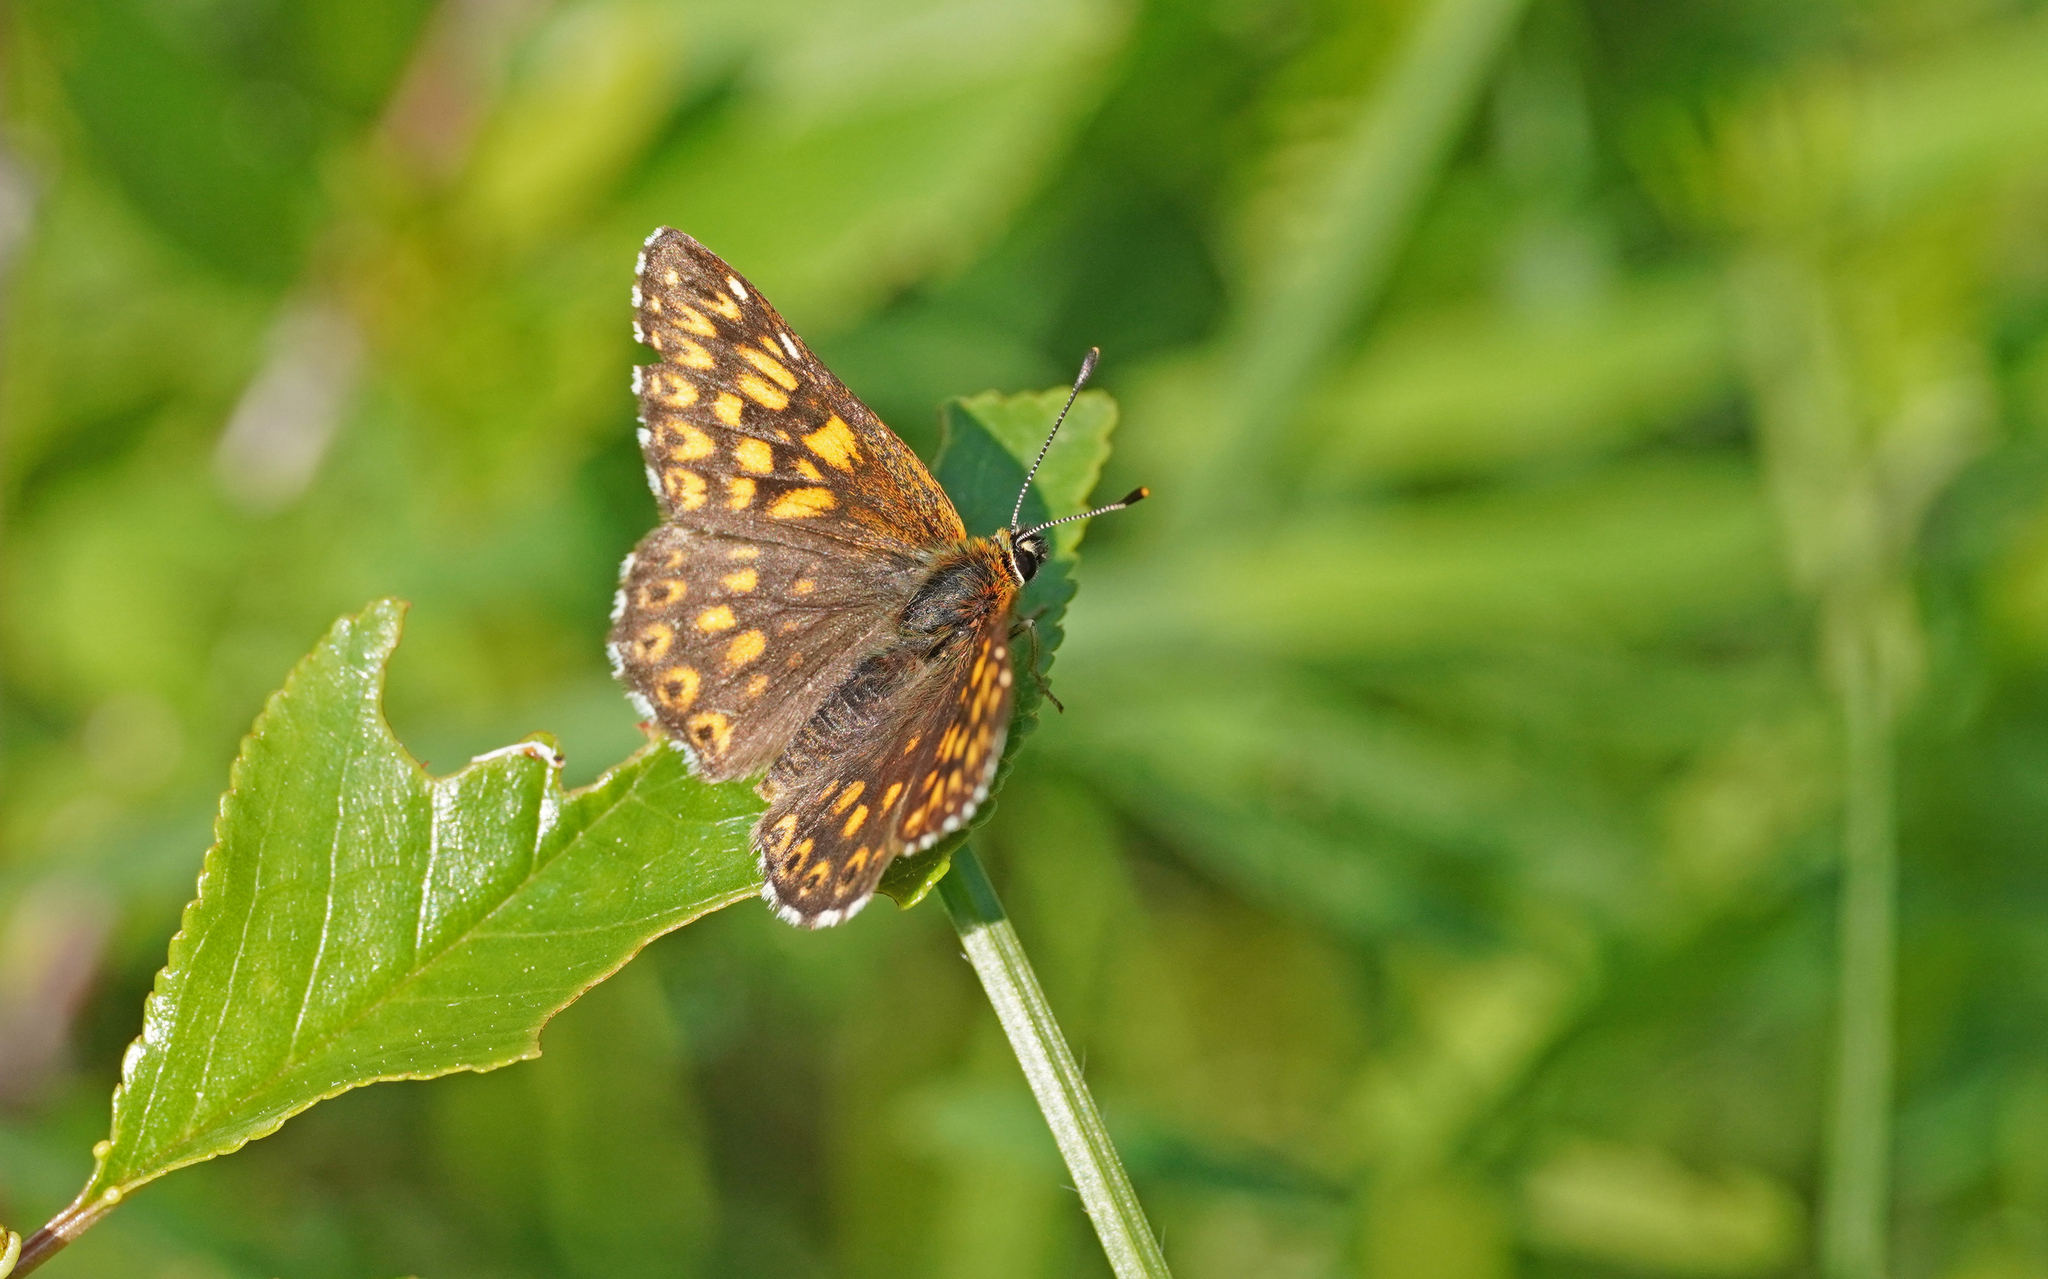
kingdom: Animalia
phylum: Arthropoda
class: Insecta
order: Lepidoptera
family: Riodinidae
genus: Hamearis
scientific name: Hamearis lucina
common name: Duke of burgundy fritillary
